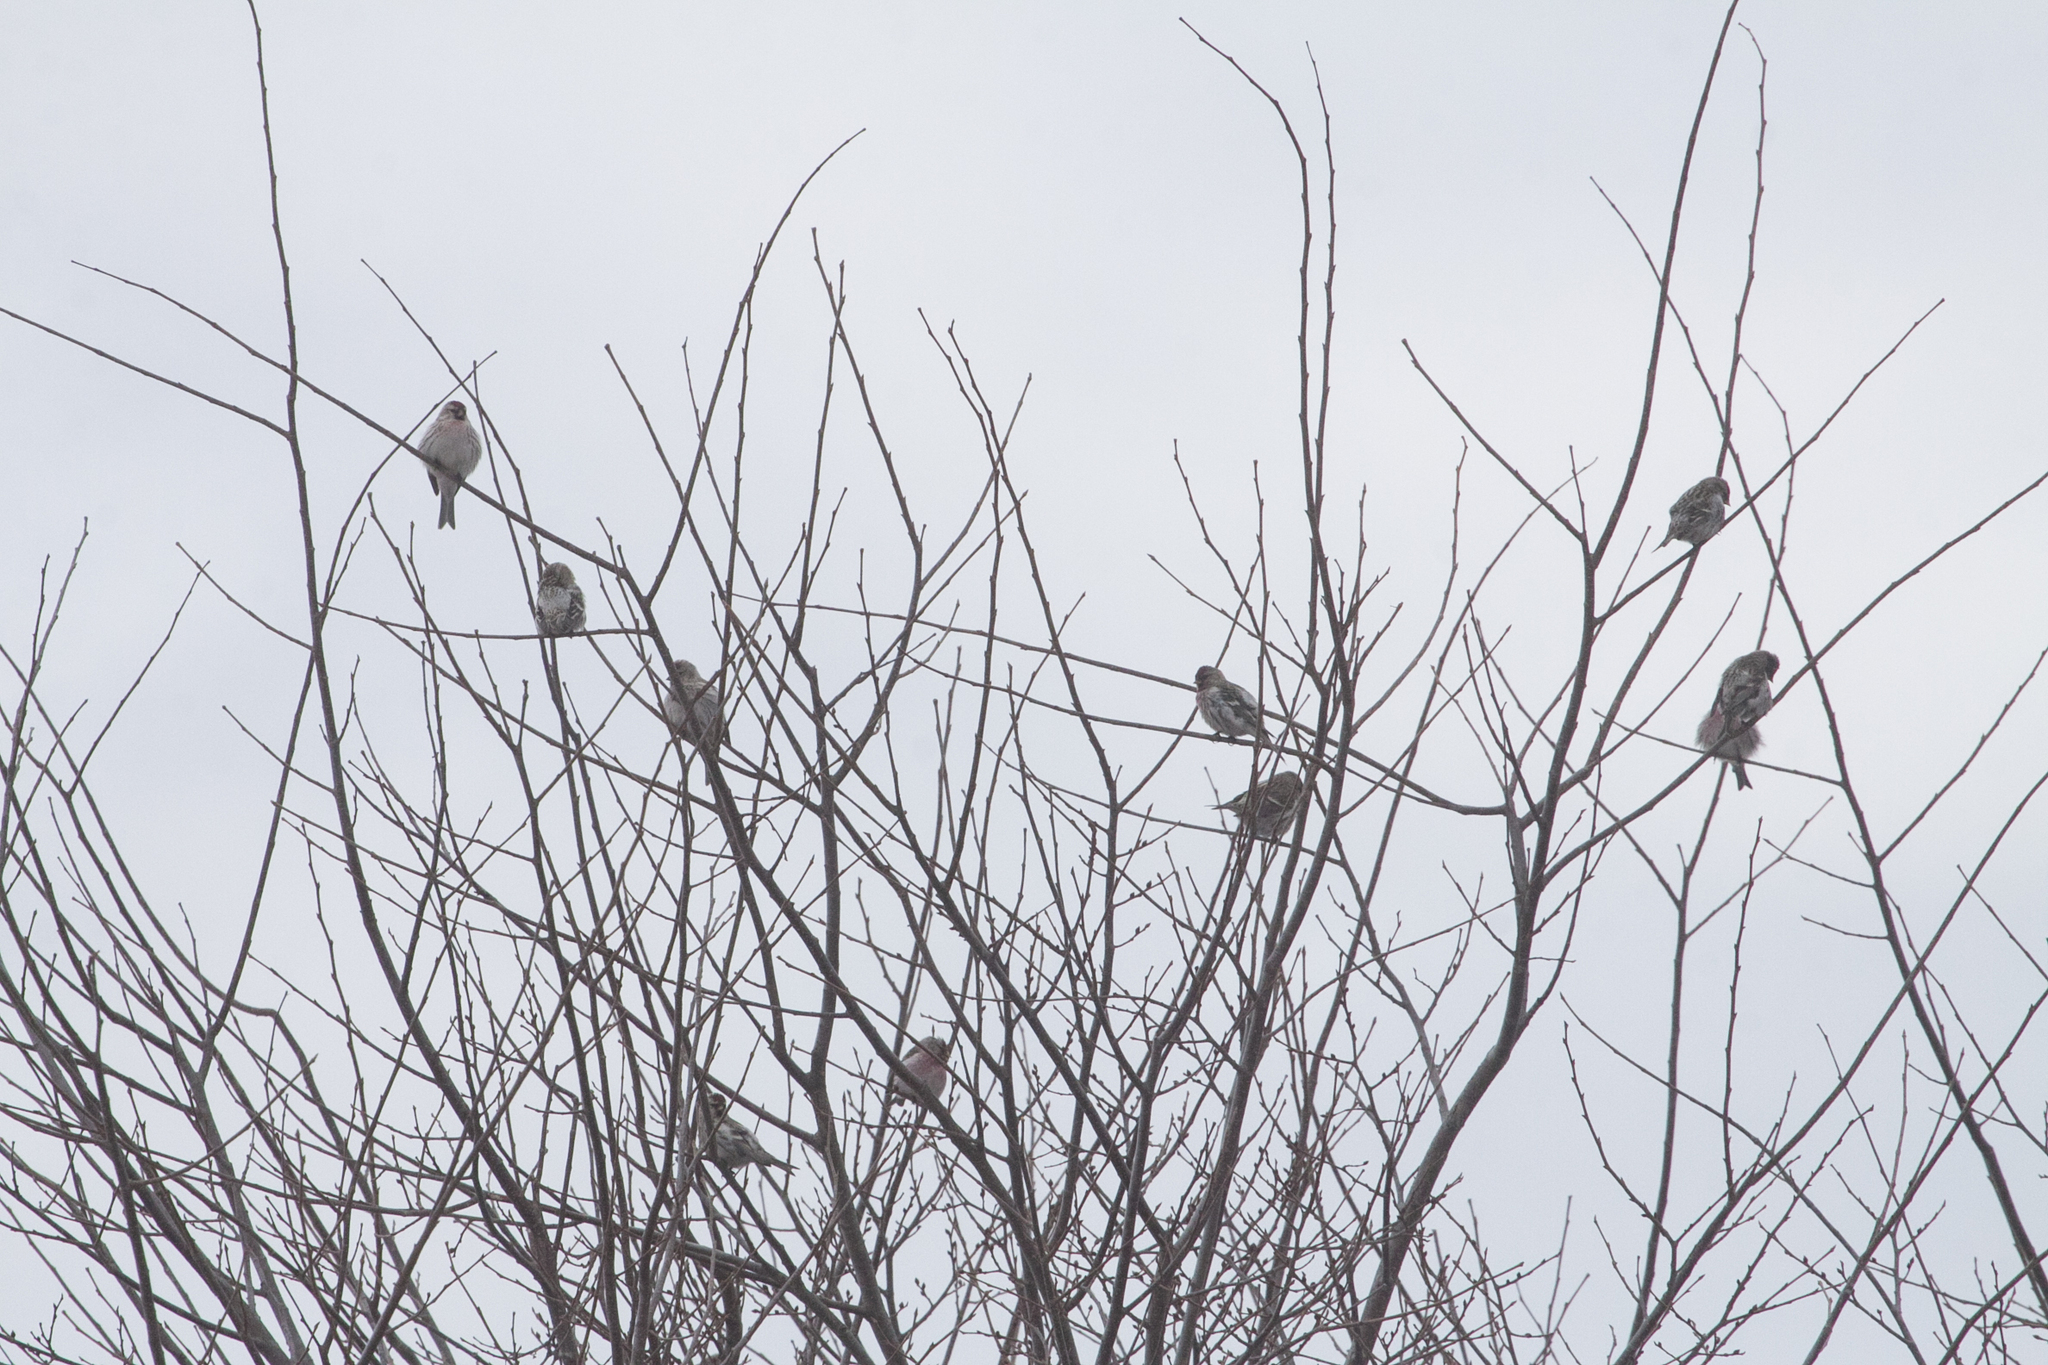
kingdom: Animalia
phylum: Chordata
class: Aves
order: Passeriformes
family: Fringillidae
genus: Acanthis
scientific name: Acanthis flammea
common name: Common redpoll
